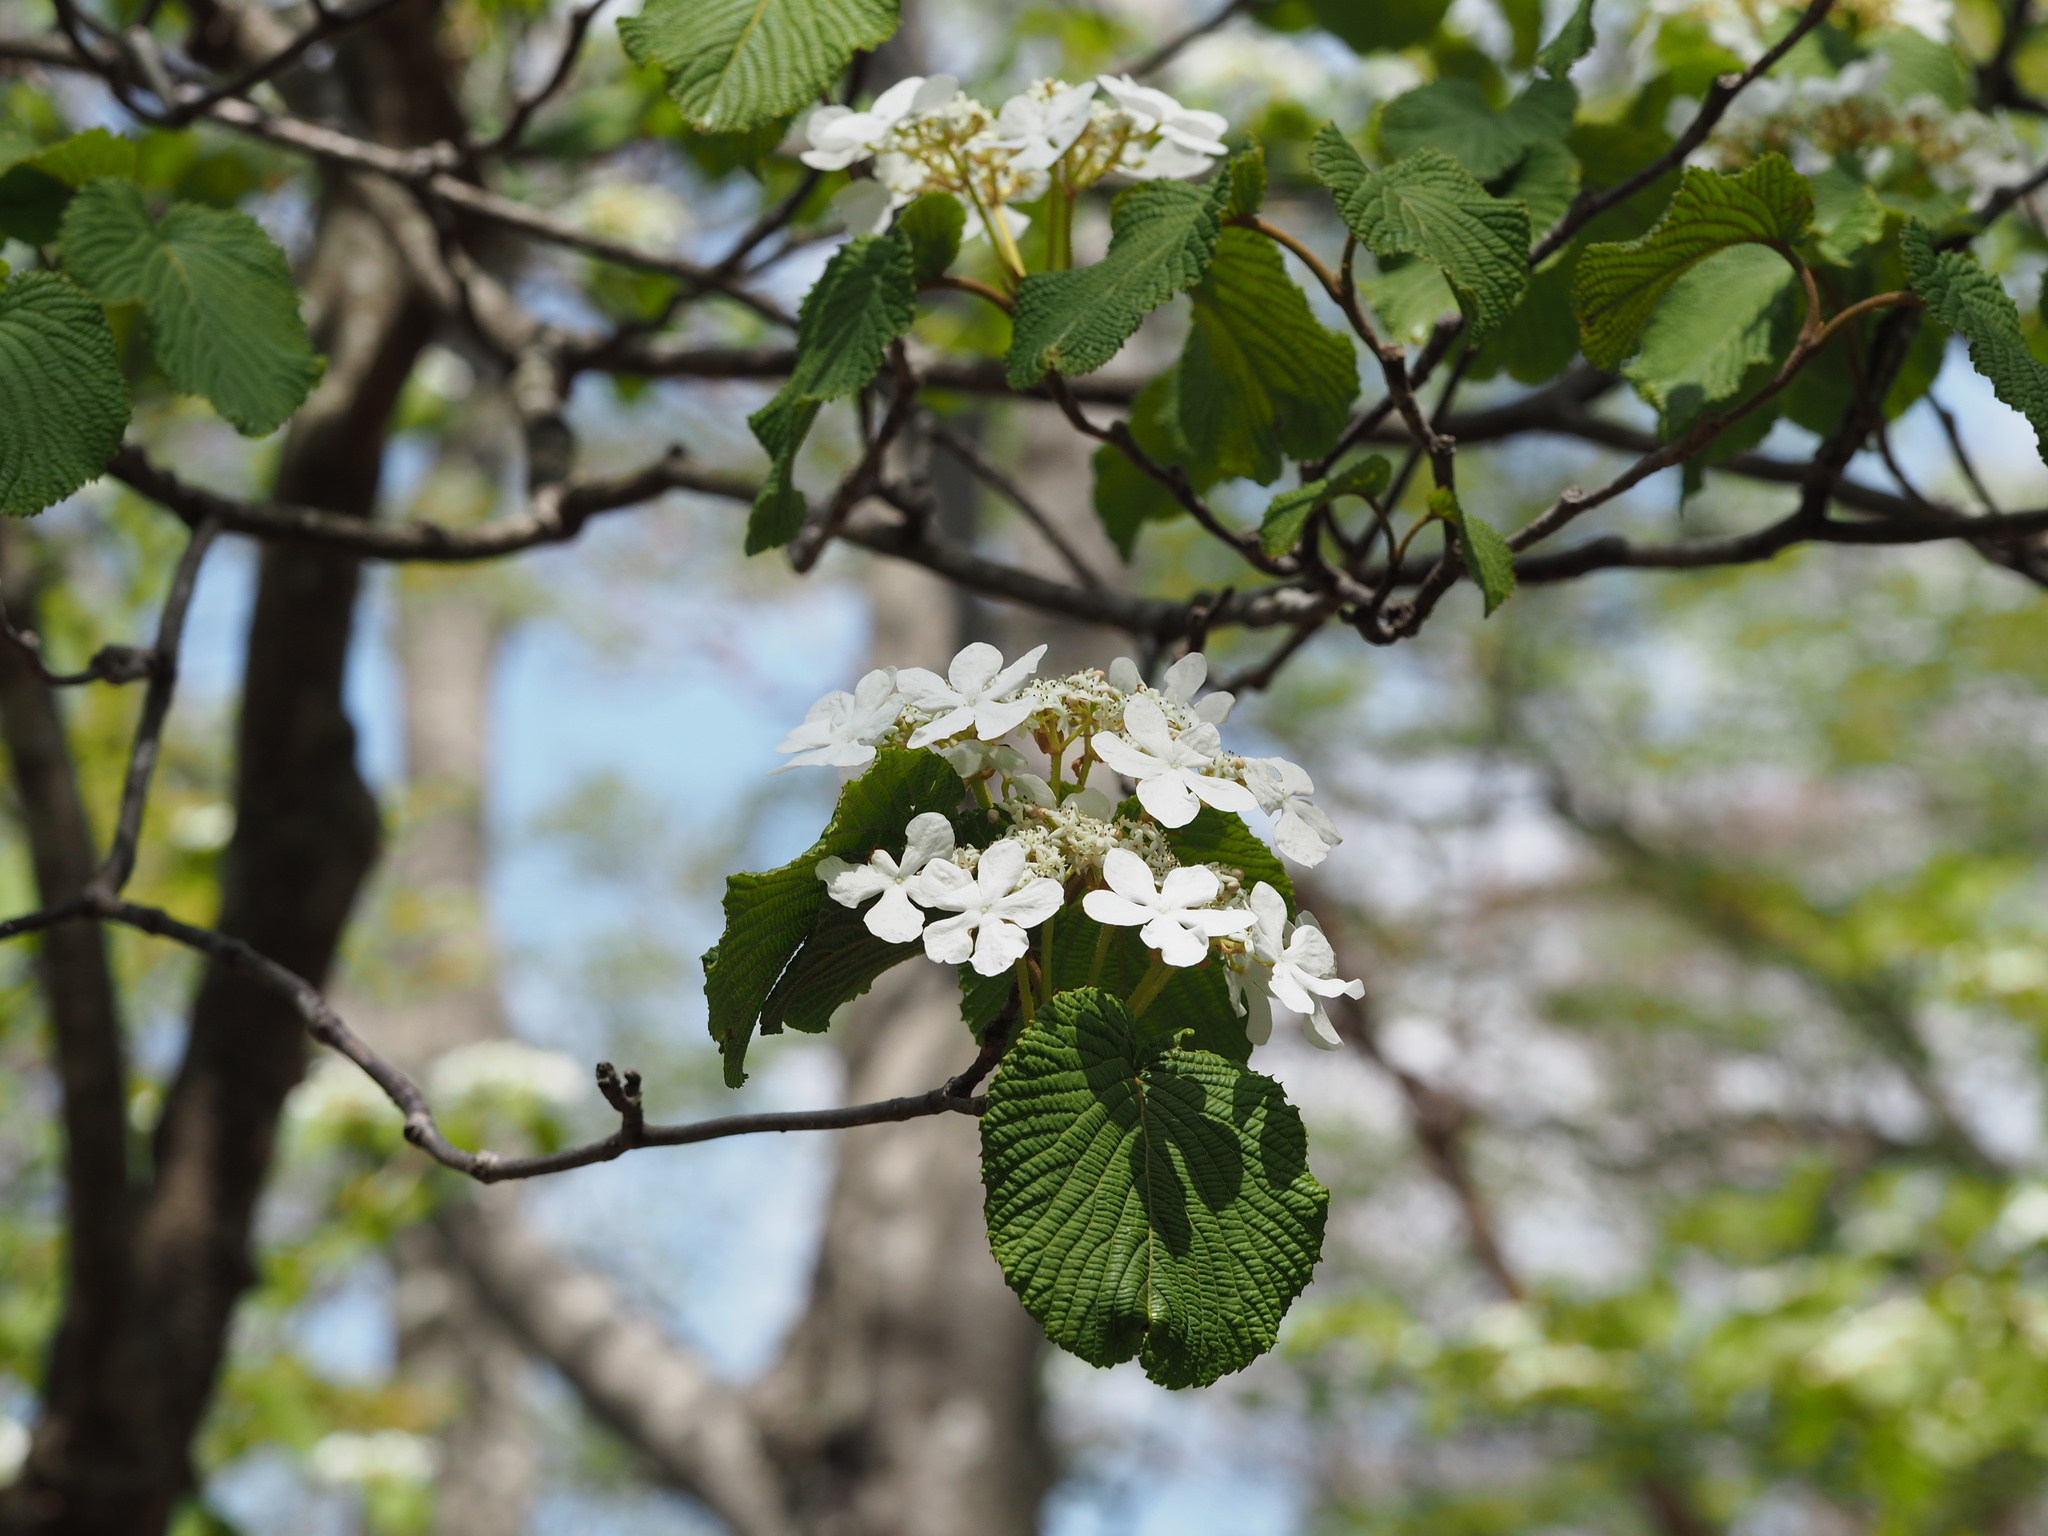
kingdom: Plantae
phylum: Tracheophyta
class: Magnoliopsida
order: Dipsacales
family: Viburnaceae
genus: Viburnum
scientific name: Viburnum furcatum
